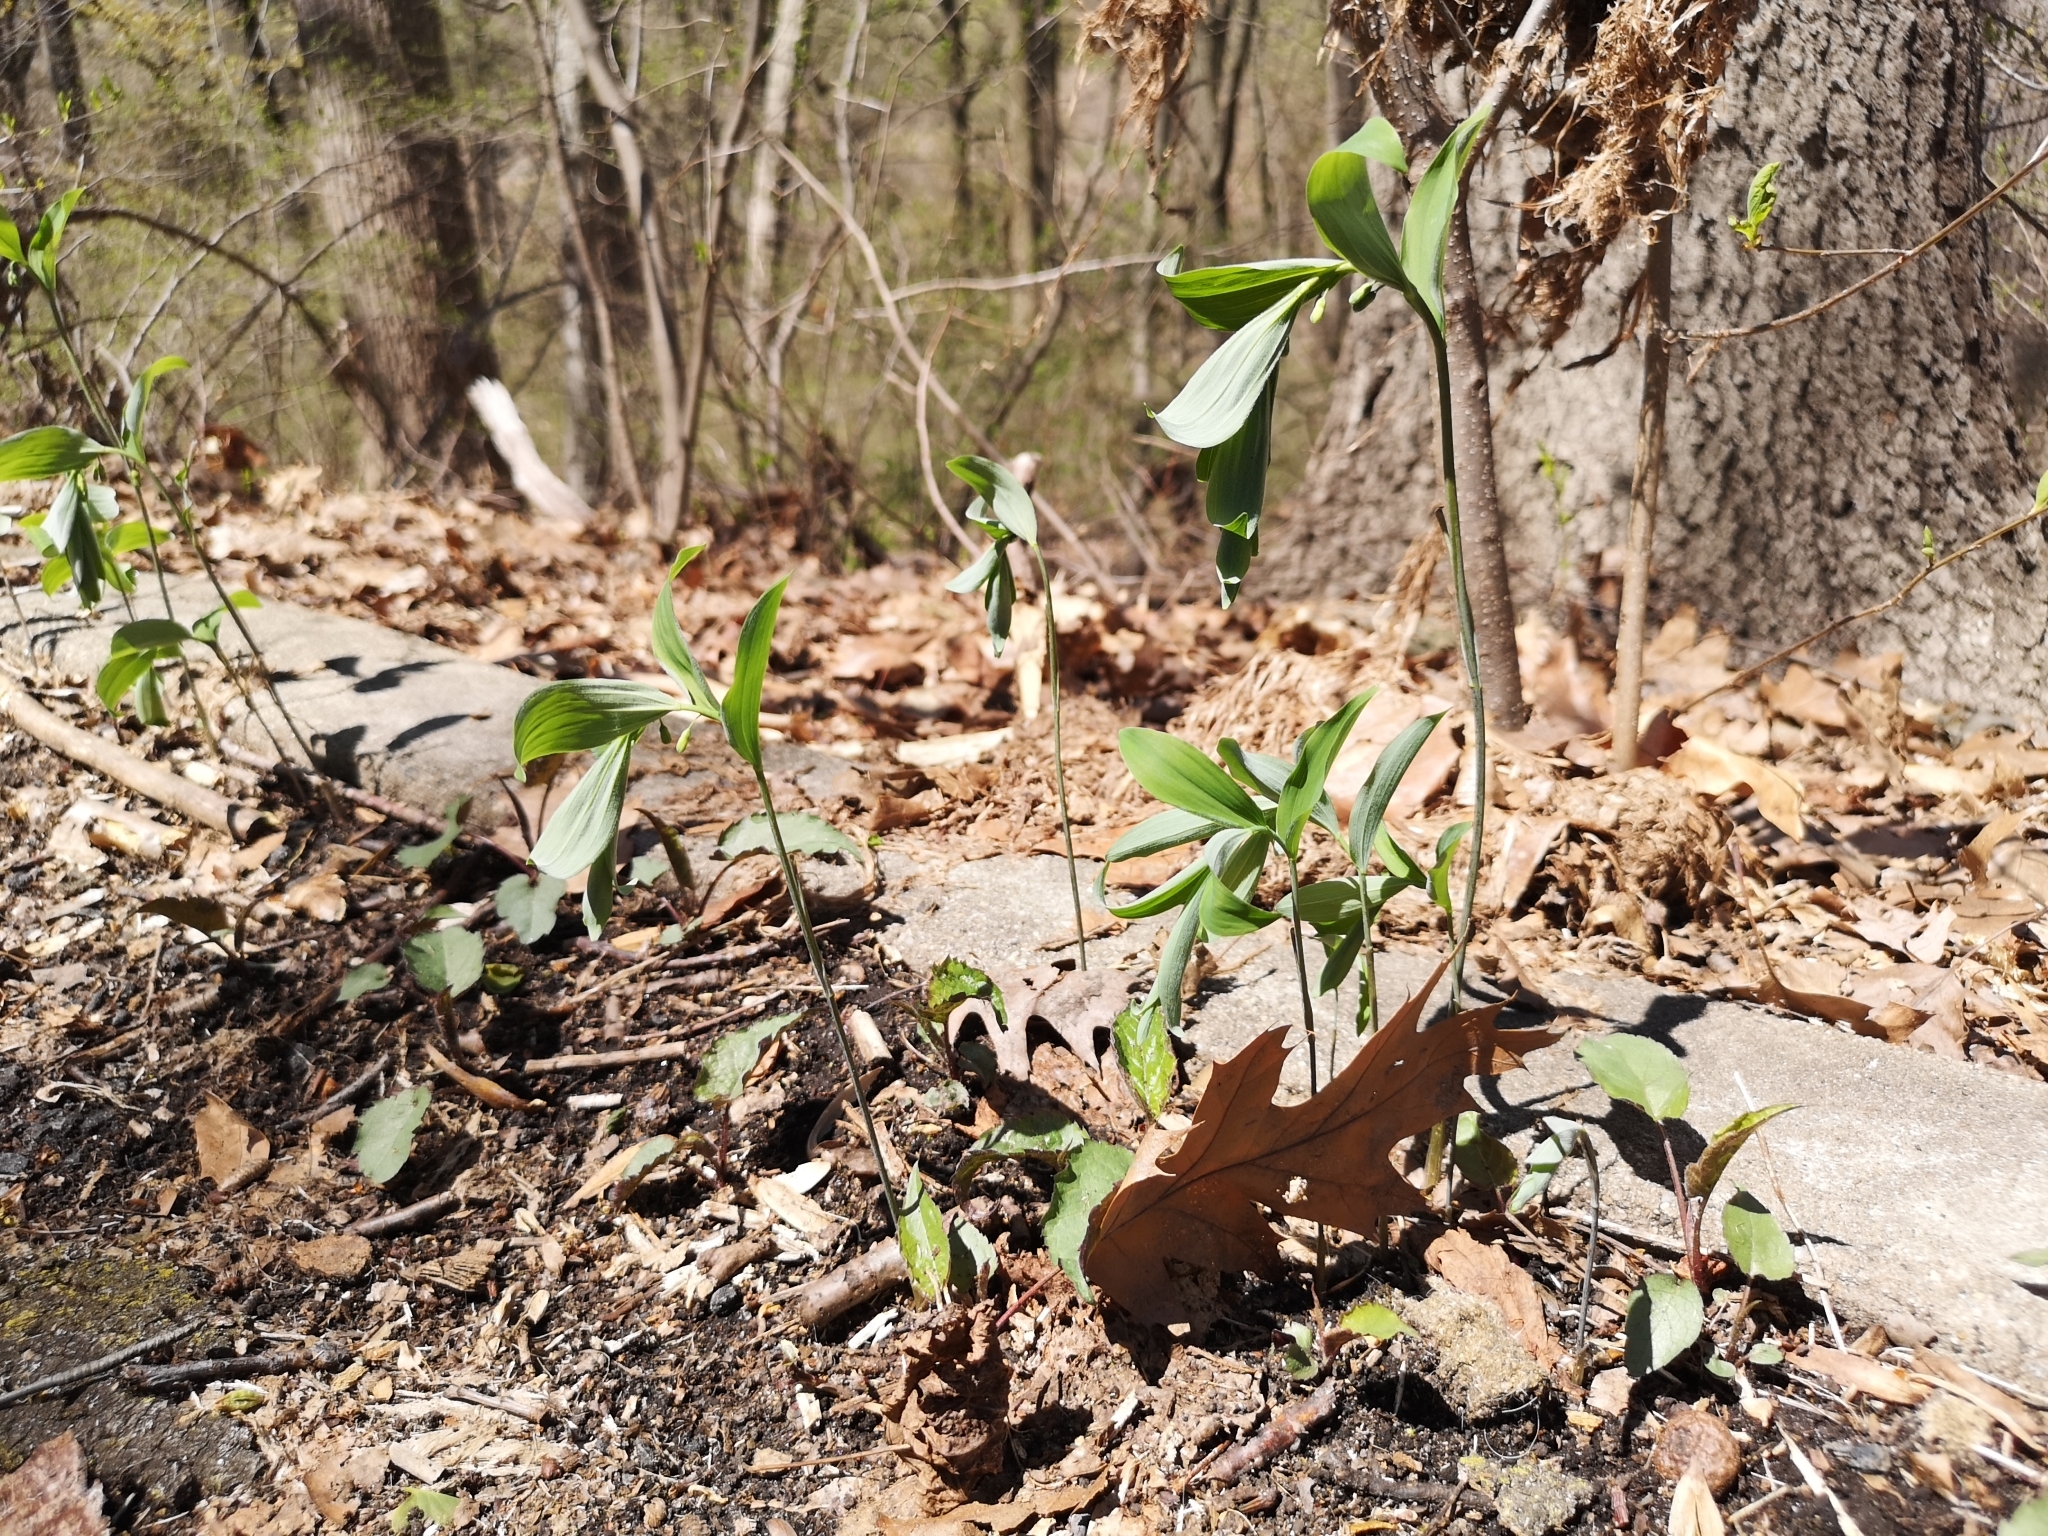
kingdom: Plantae
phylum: Tracheophyta
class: Liliopsida
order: Asparagales
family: Asparagaceae
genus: Polygonatum
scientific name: Polygonatum pubescens
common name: Downy solomon's seal
